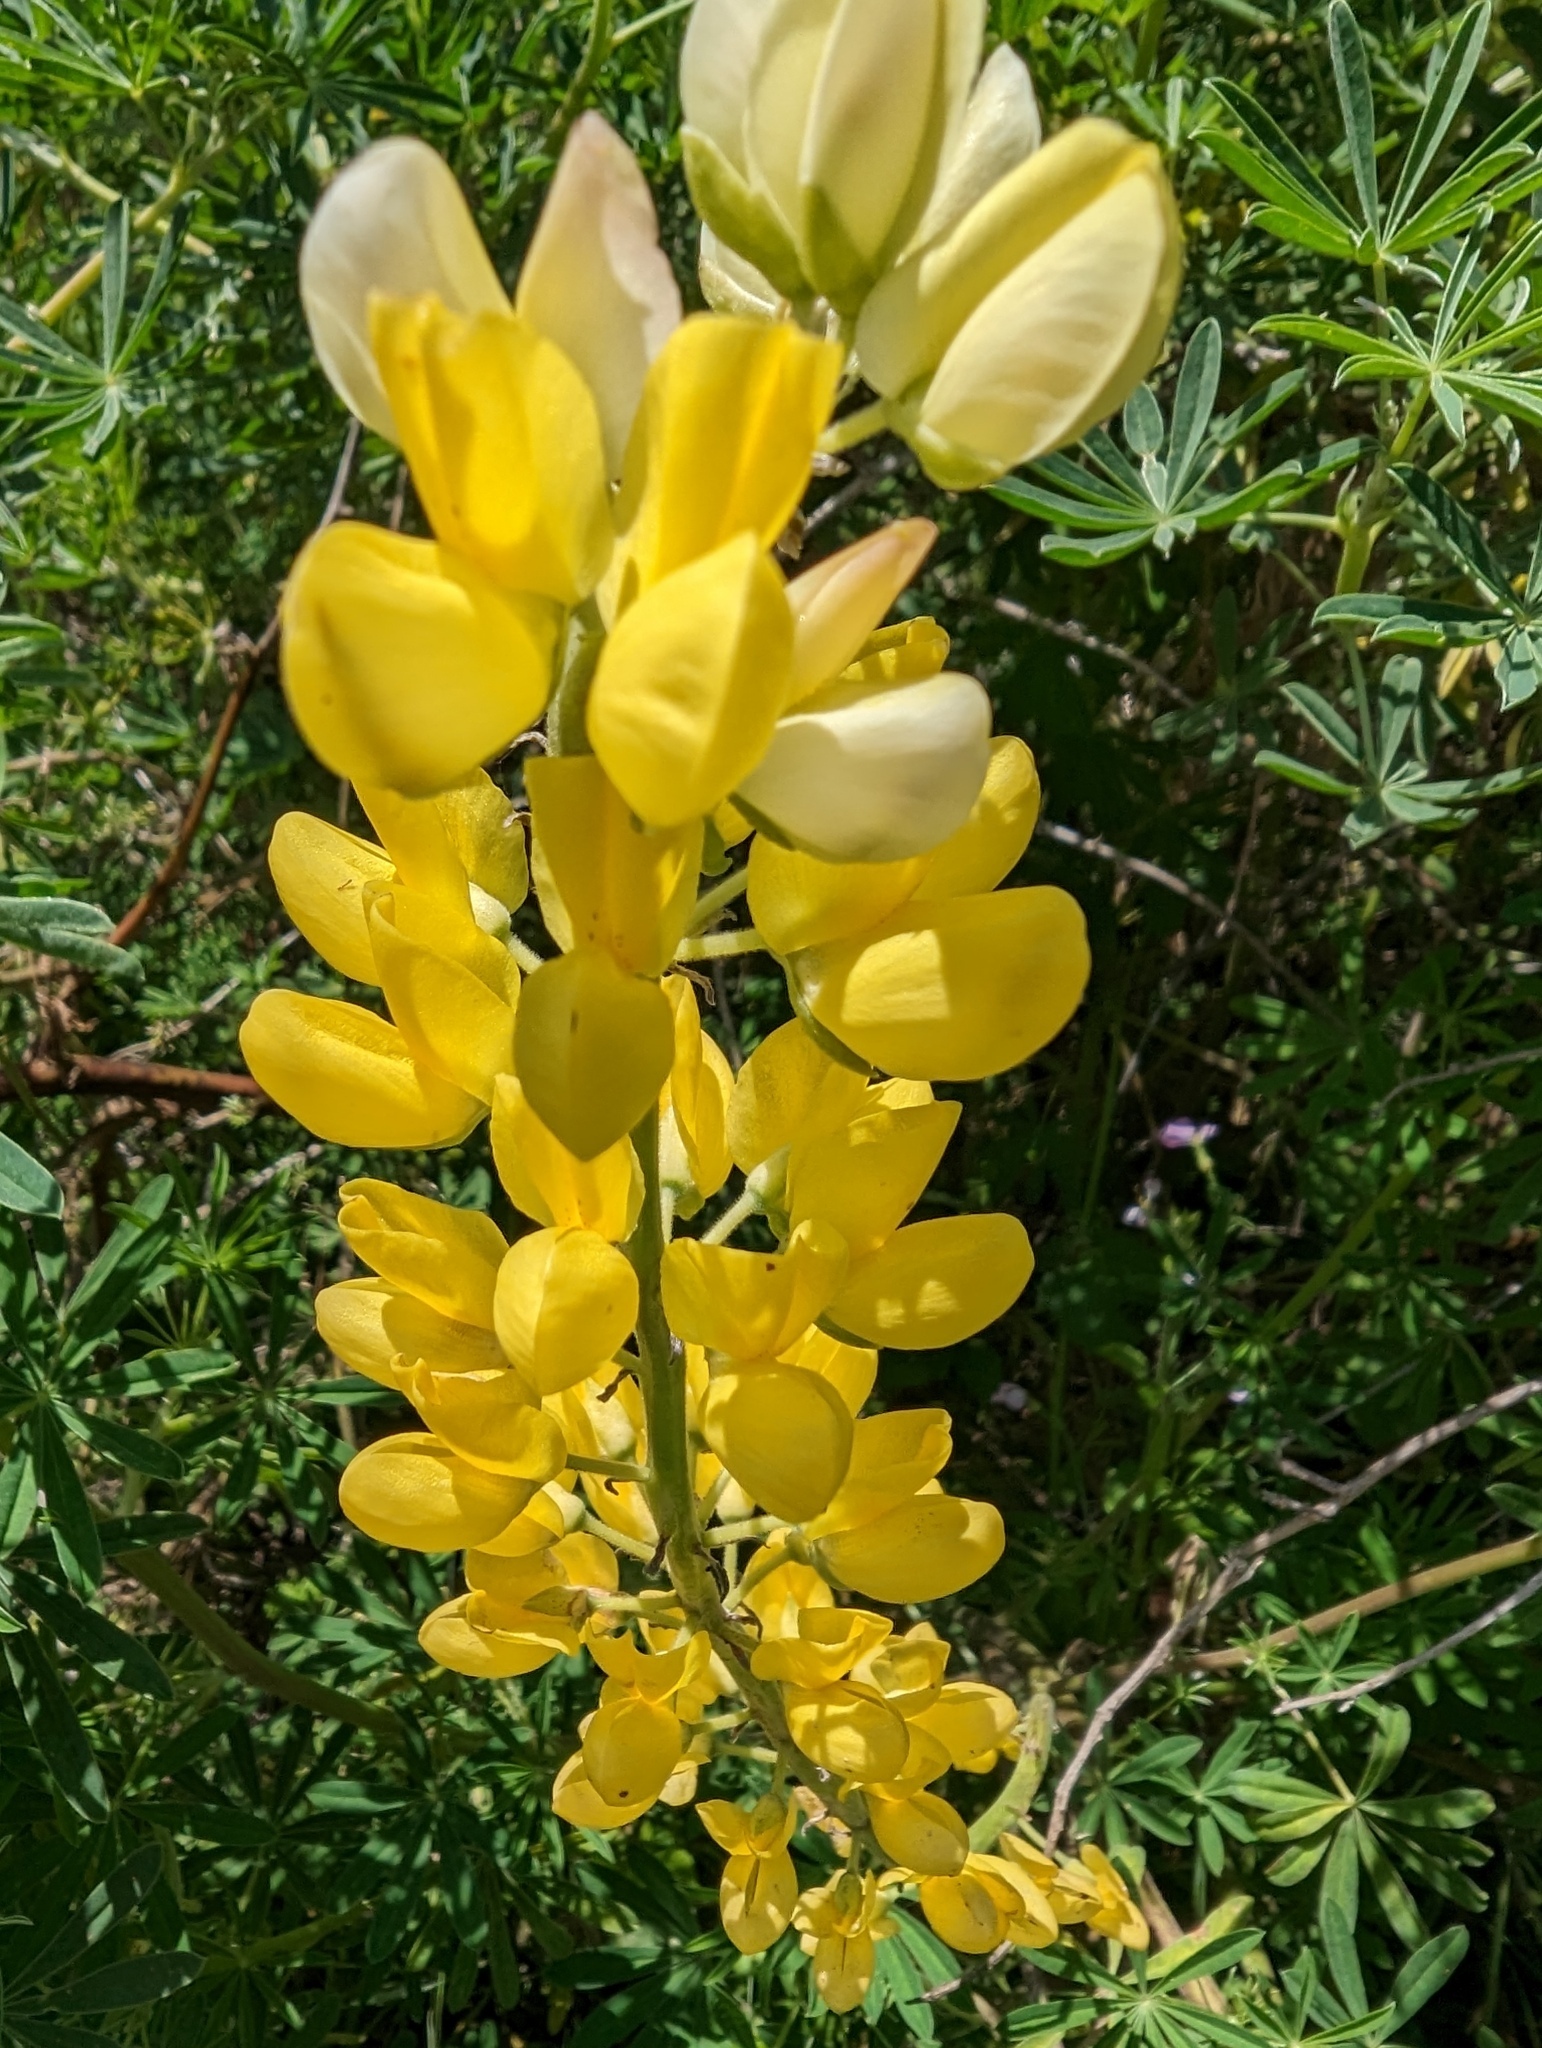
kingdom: Plantae
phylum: Tracheophyta
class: Magnoliopsida
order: Fabales
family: Fabaceae
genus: Lupinus
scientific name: Lupinus arboreus
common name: Yellow bush lupine
